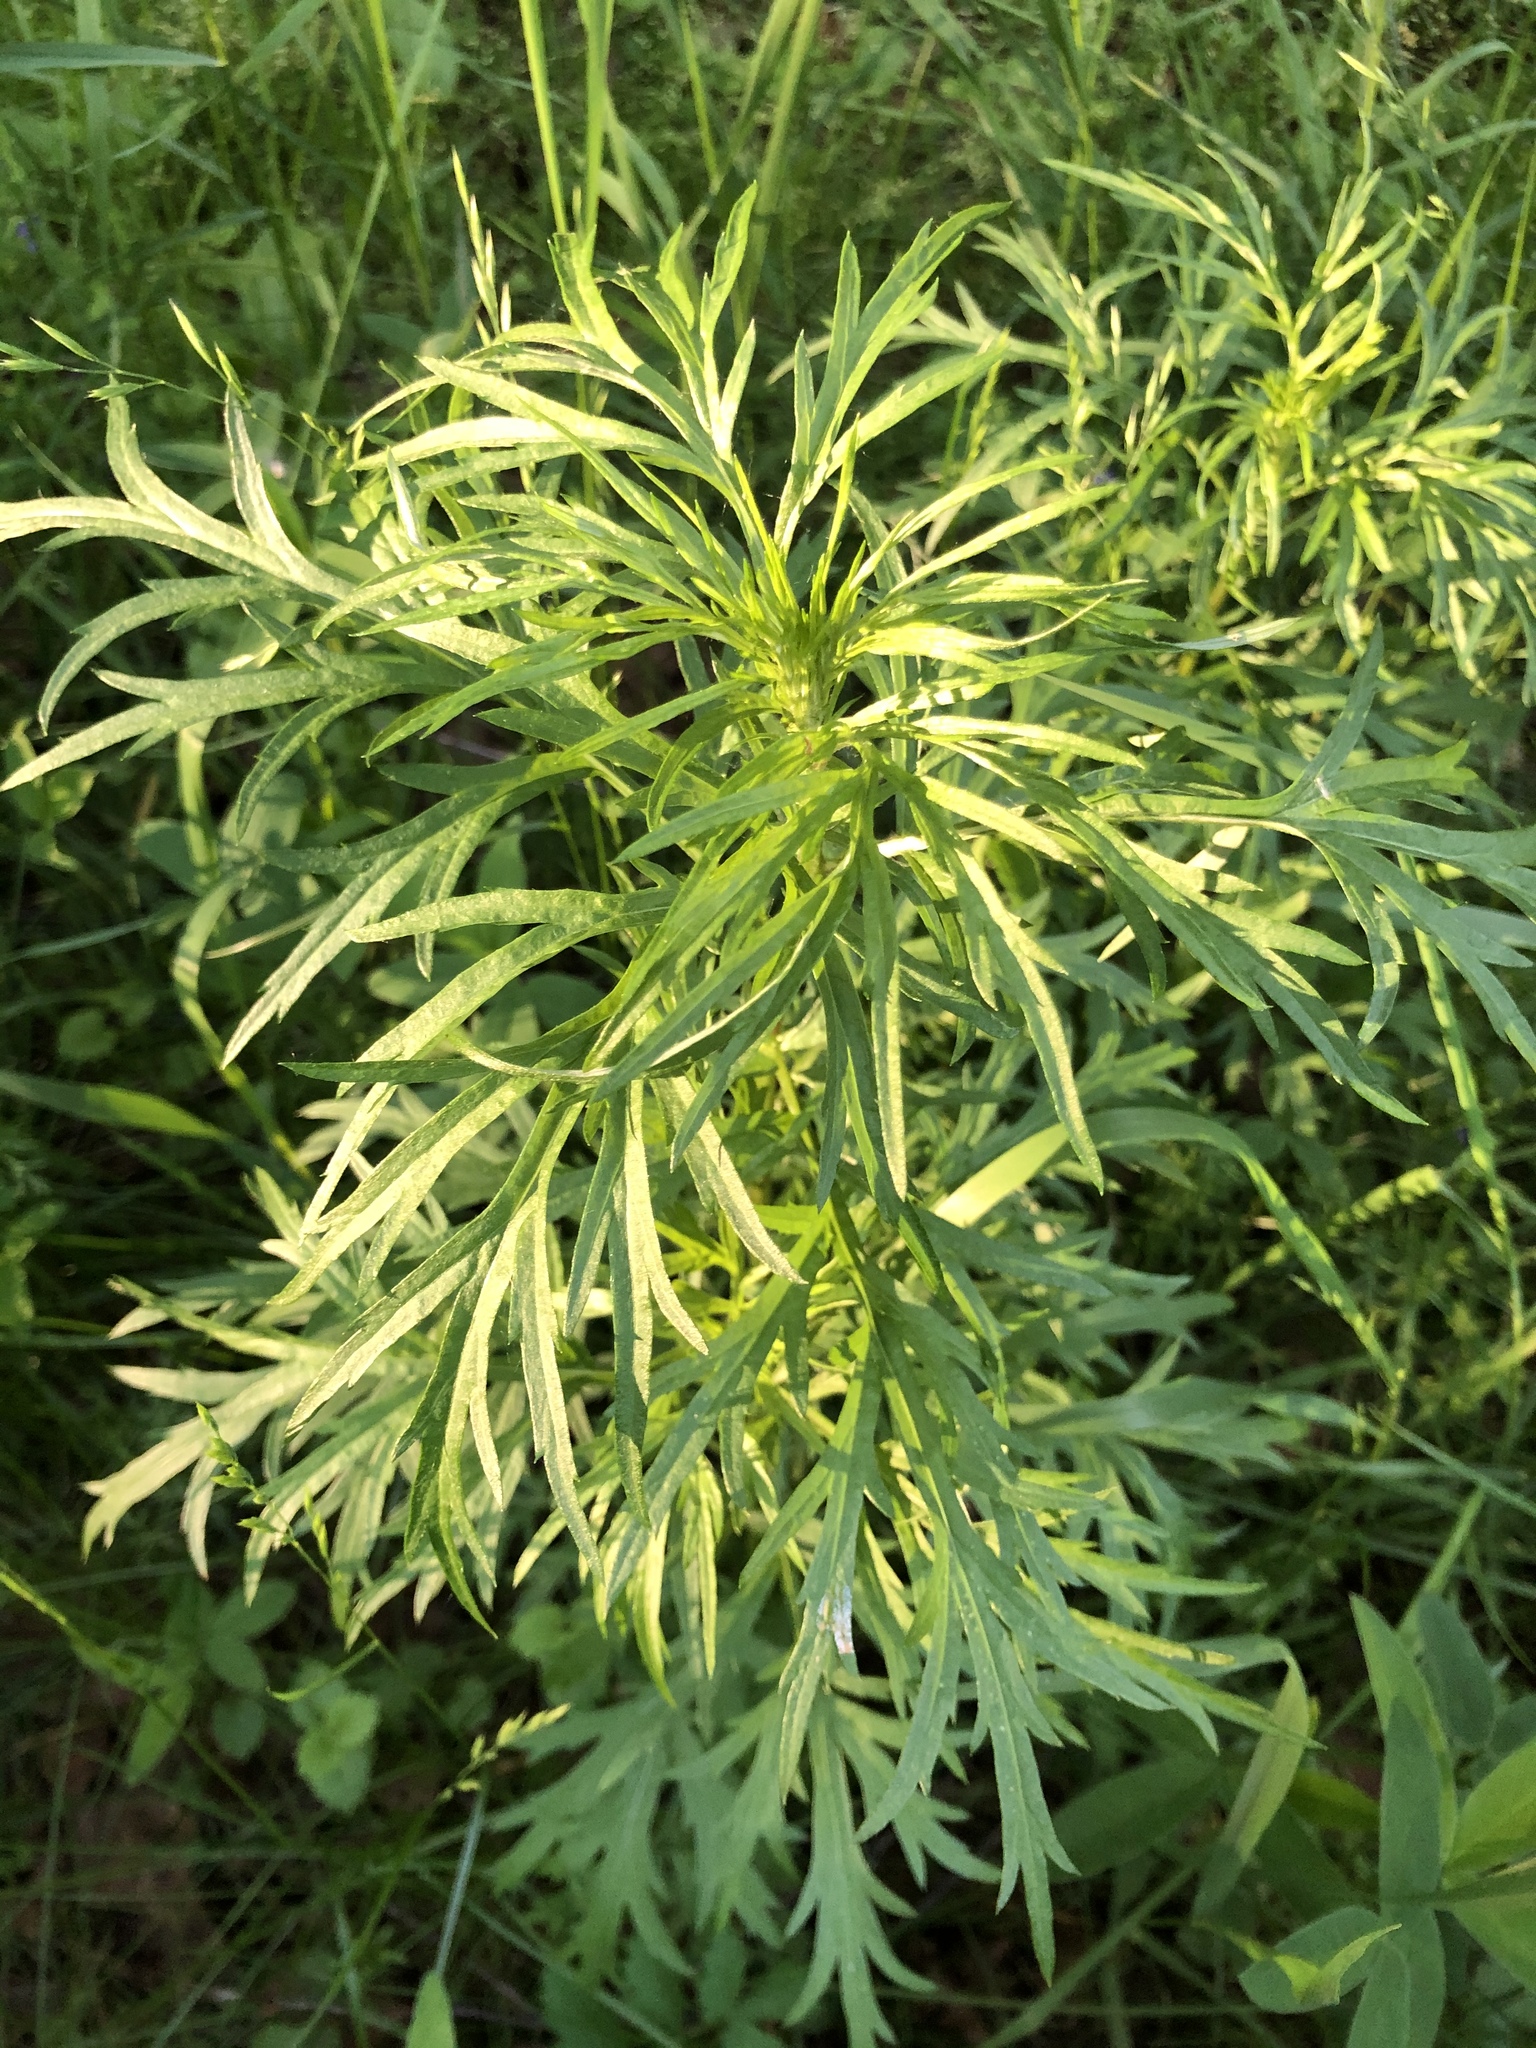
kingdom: Plantae
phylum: Tracheophyta
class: Magnoliopsida
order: Asterales
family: Asteraceae
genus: Artemisia
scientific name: Artemisia vulgaris
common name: Mugwort
